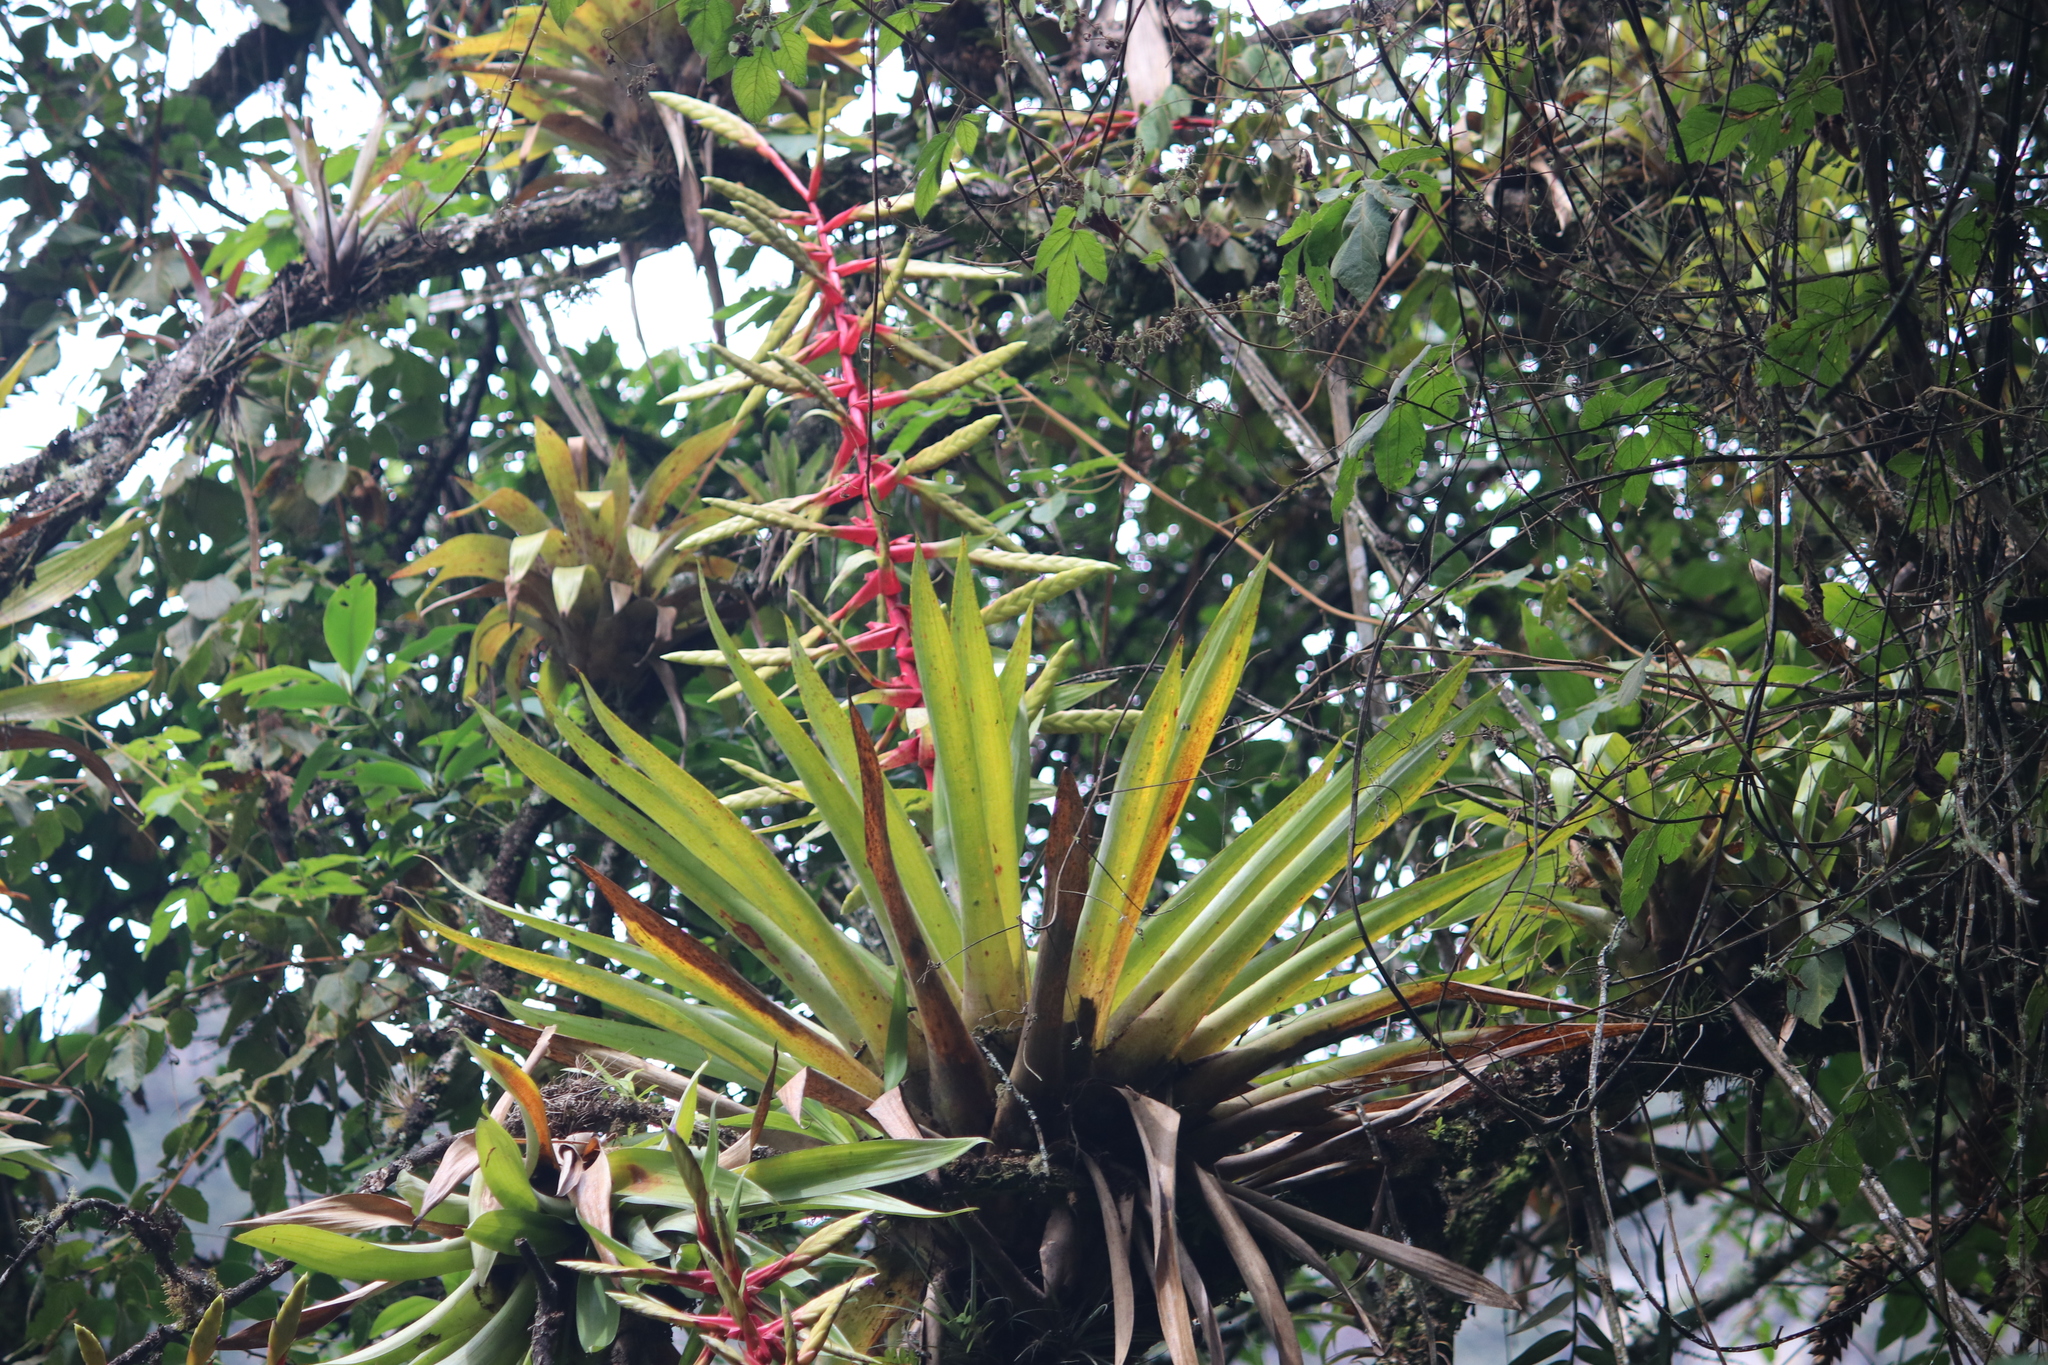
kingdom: Plantae
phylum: Tracheophyta
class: Liliopsida
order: Poales
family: Bromeliaceae
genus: Tillandsia
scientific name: Tillandsia fendleri
